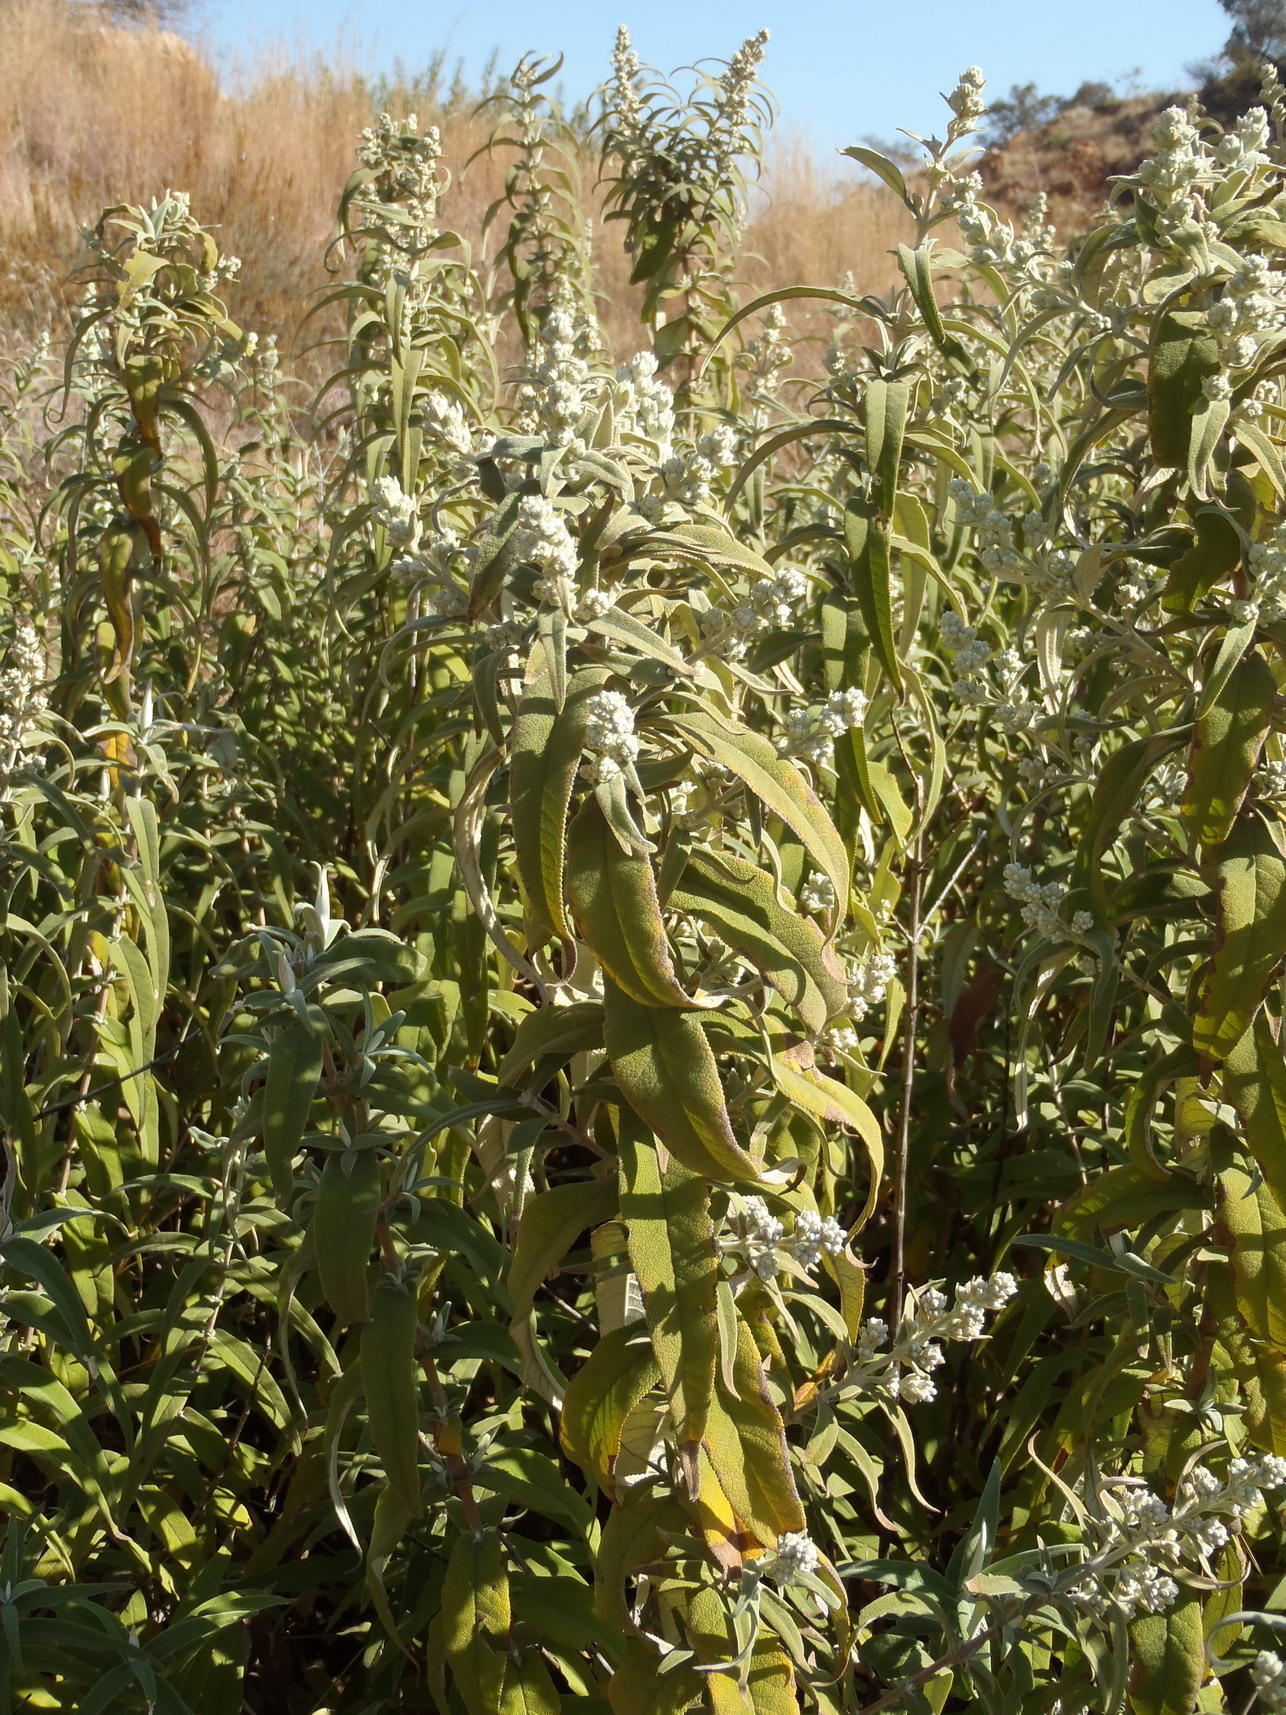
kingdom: Plantae
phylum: Tracheophyta
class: Magnoliopsida
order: Lamiales
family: Scrophulariaceae
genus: Buddleja
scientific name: Buddleja salviifolia
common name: Sagewood
